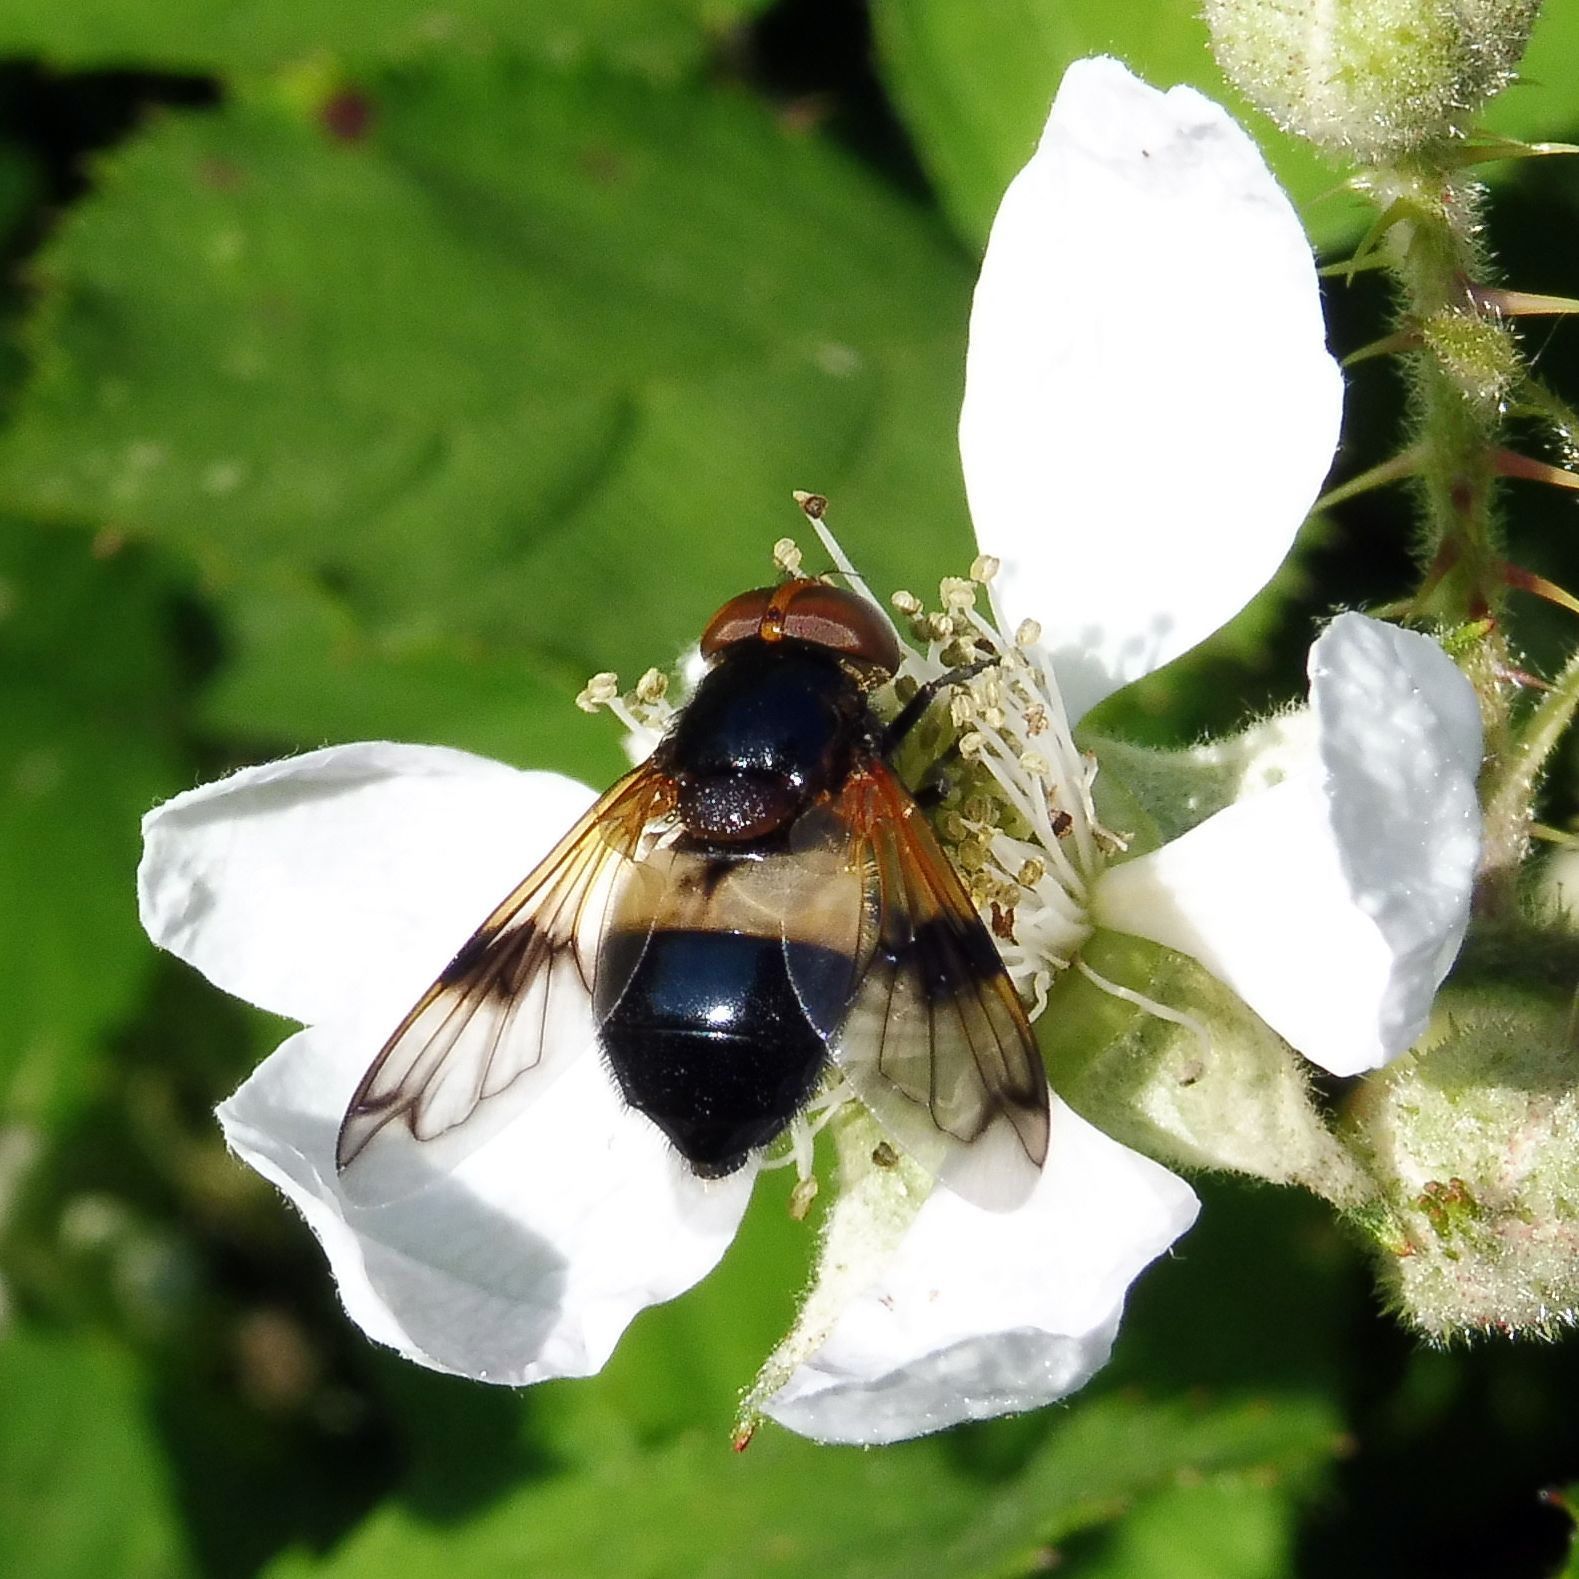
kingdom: Animalia
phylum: Arthropoda
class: Insecta
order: Diptera
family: Syrphidae
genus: Volucella
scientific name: Volucella pellucens
